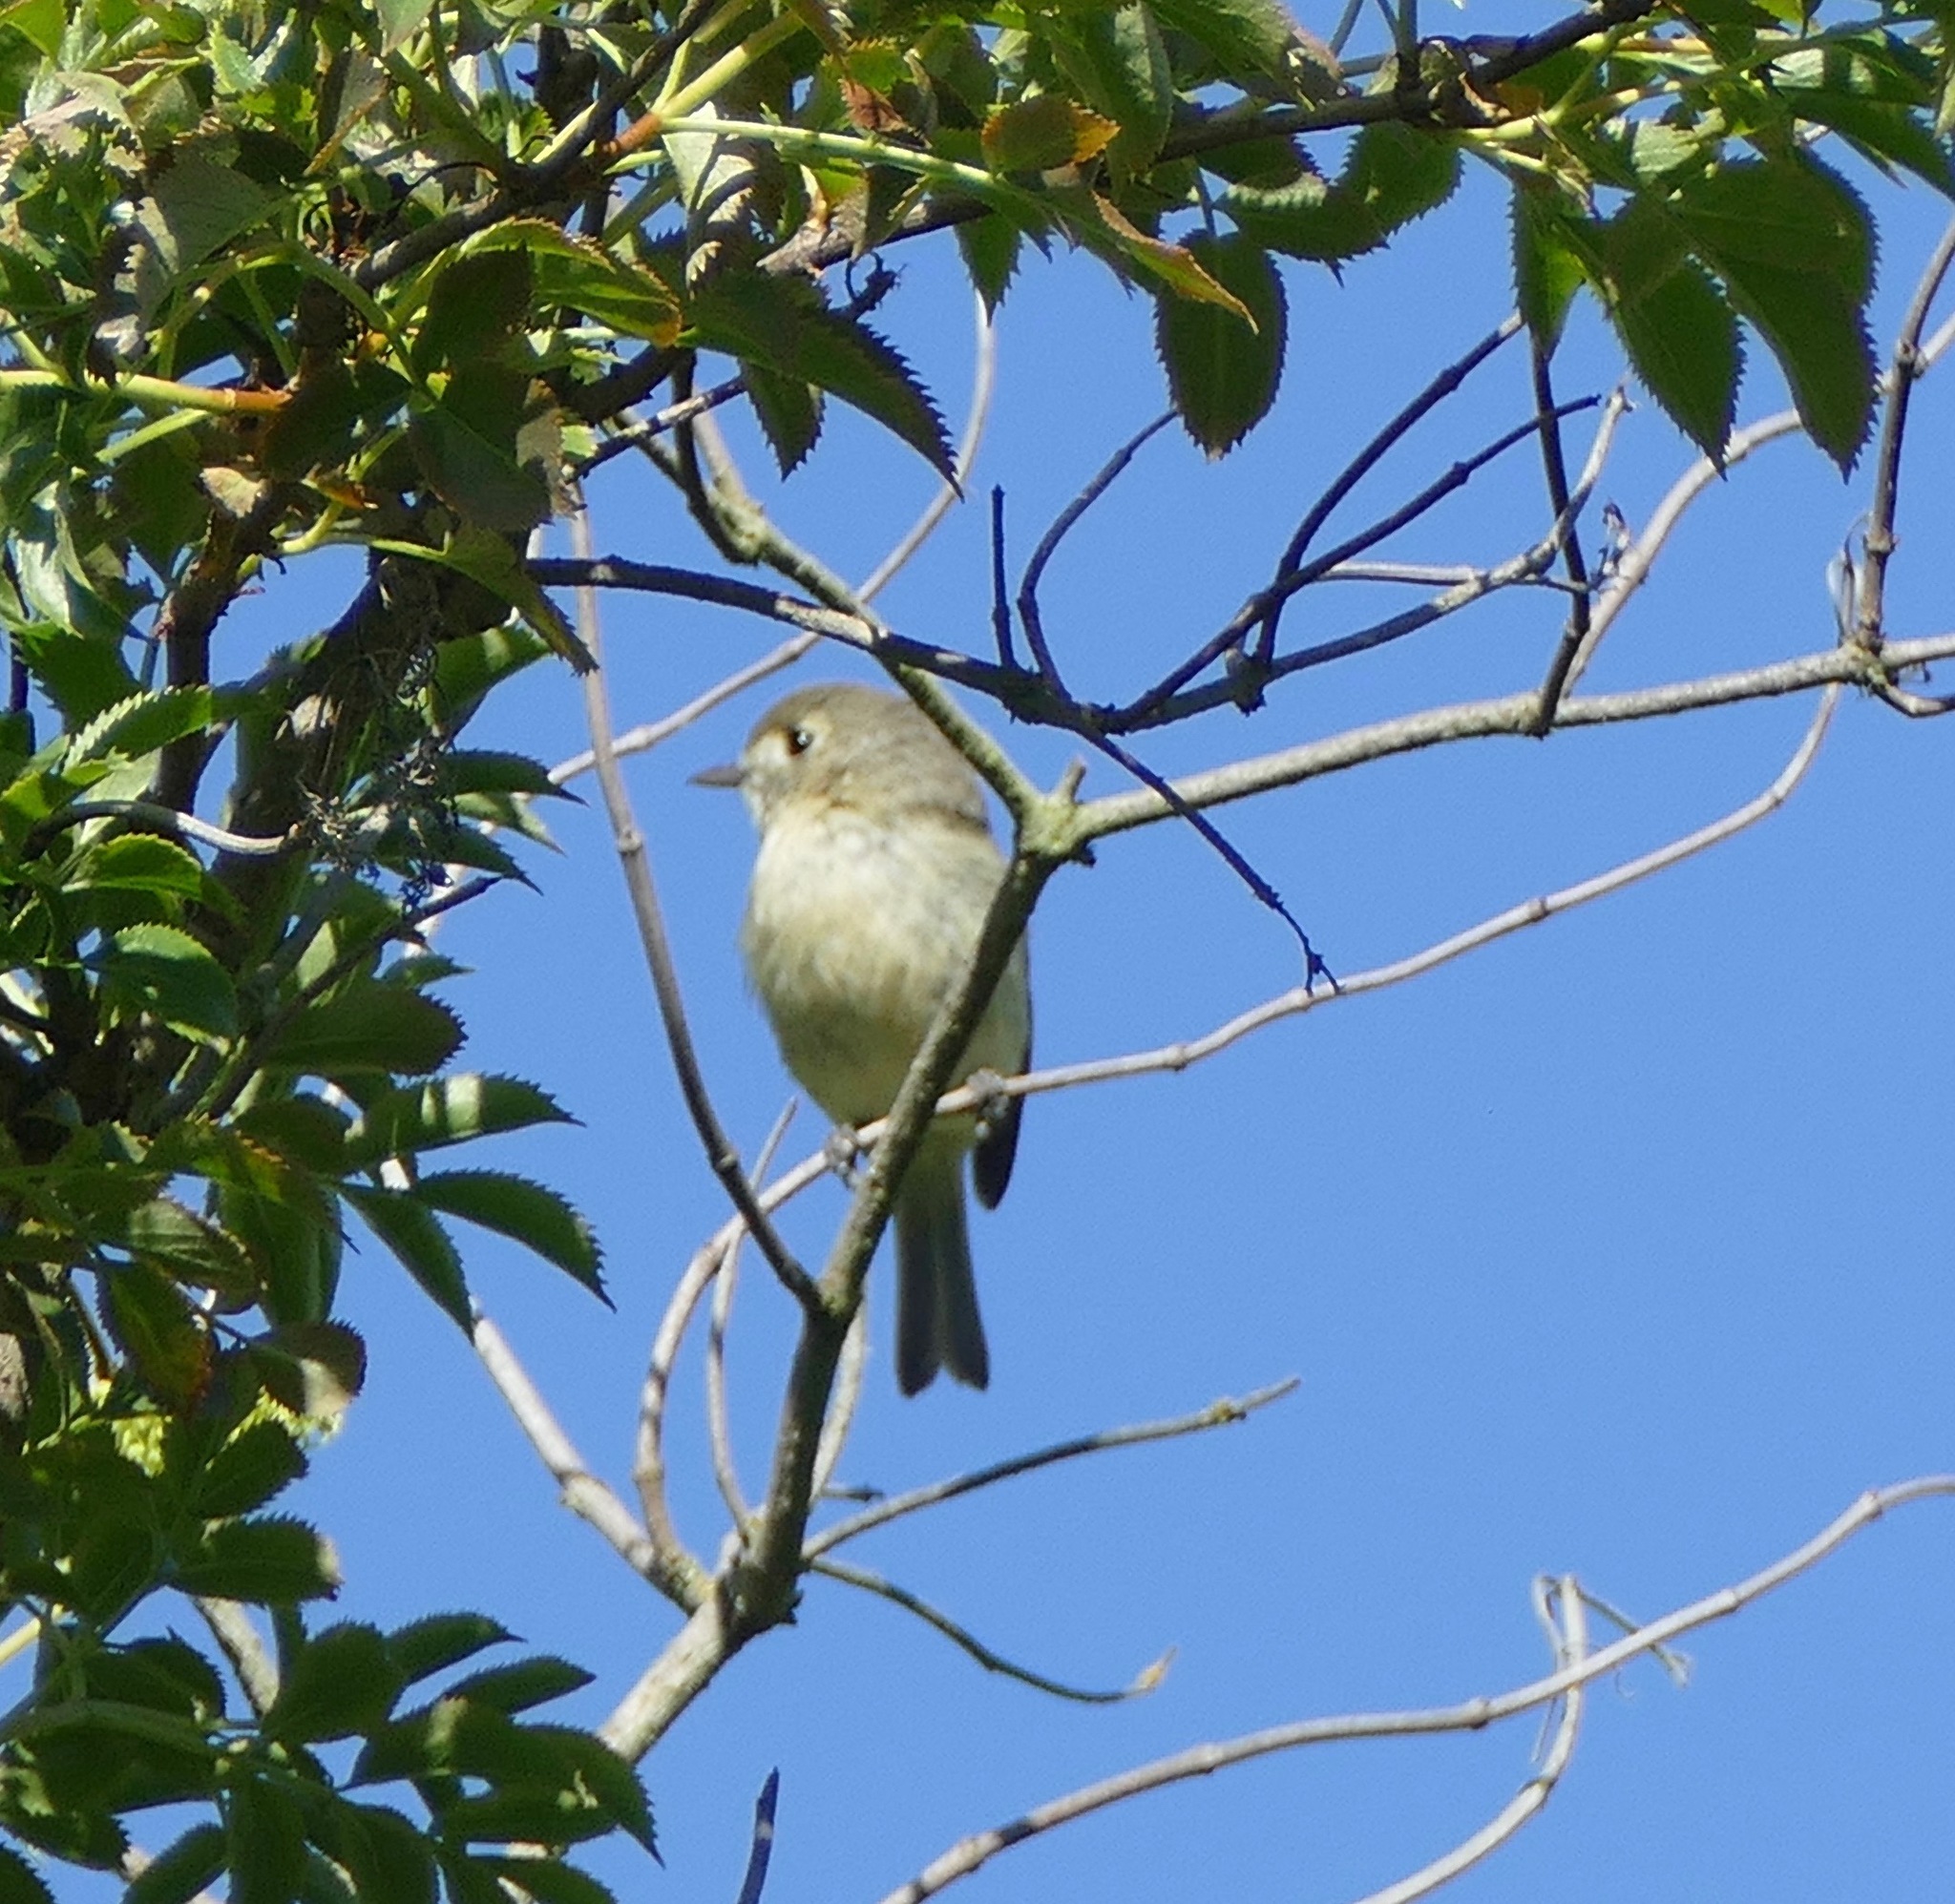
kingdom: Animalia
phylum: Chordata
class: Aves
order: Passeriformes
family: Vireonidae
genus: Vireo
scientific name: Vireo huttoni
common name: Hutton's vireo
